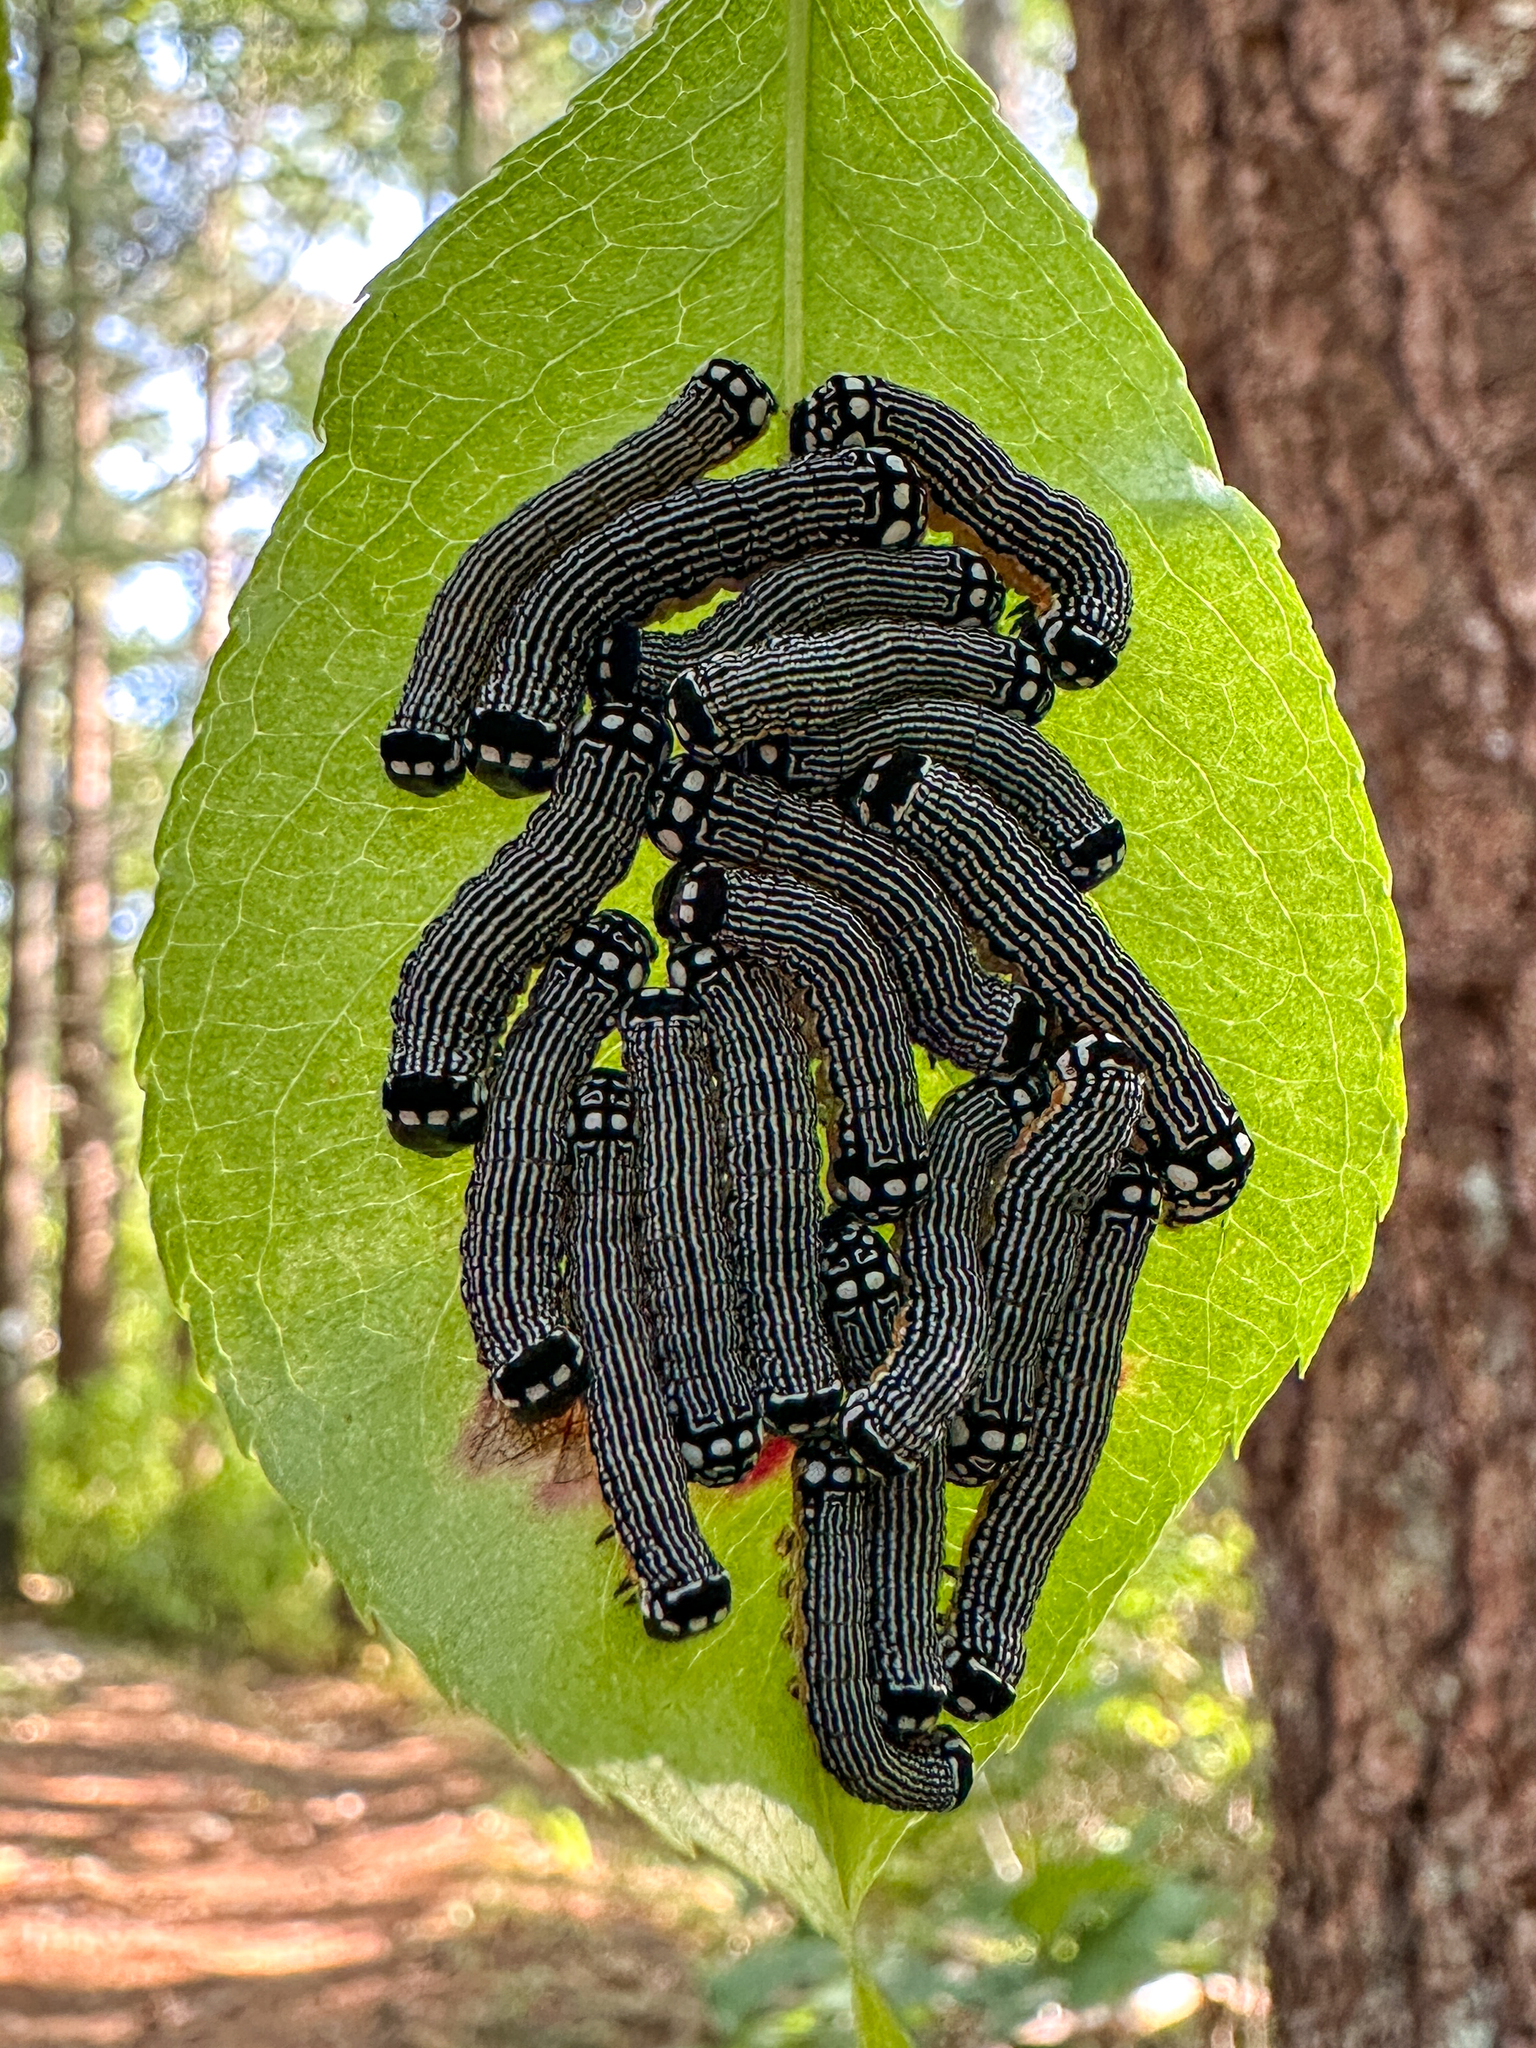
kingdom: Animalia
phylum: Arthropoda
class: Insecta
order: Lepidoptera
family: Noctuidae
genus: Phosphila
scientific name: Phosphila turbulenta
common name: Turbulent phosphila moth
